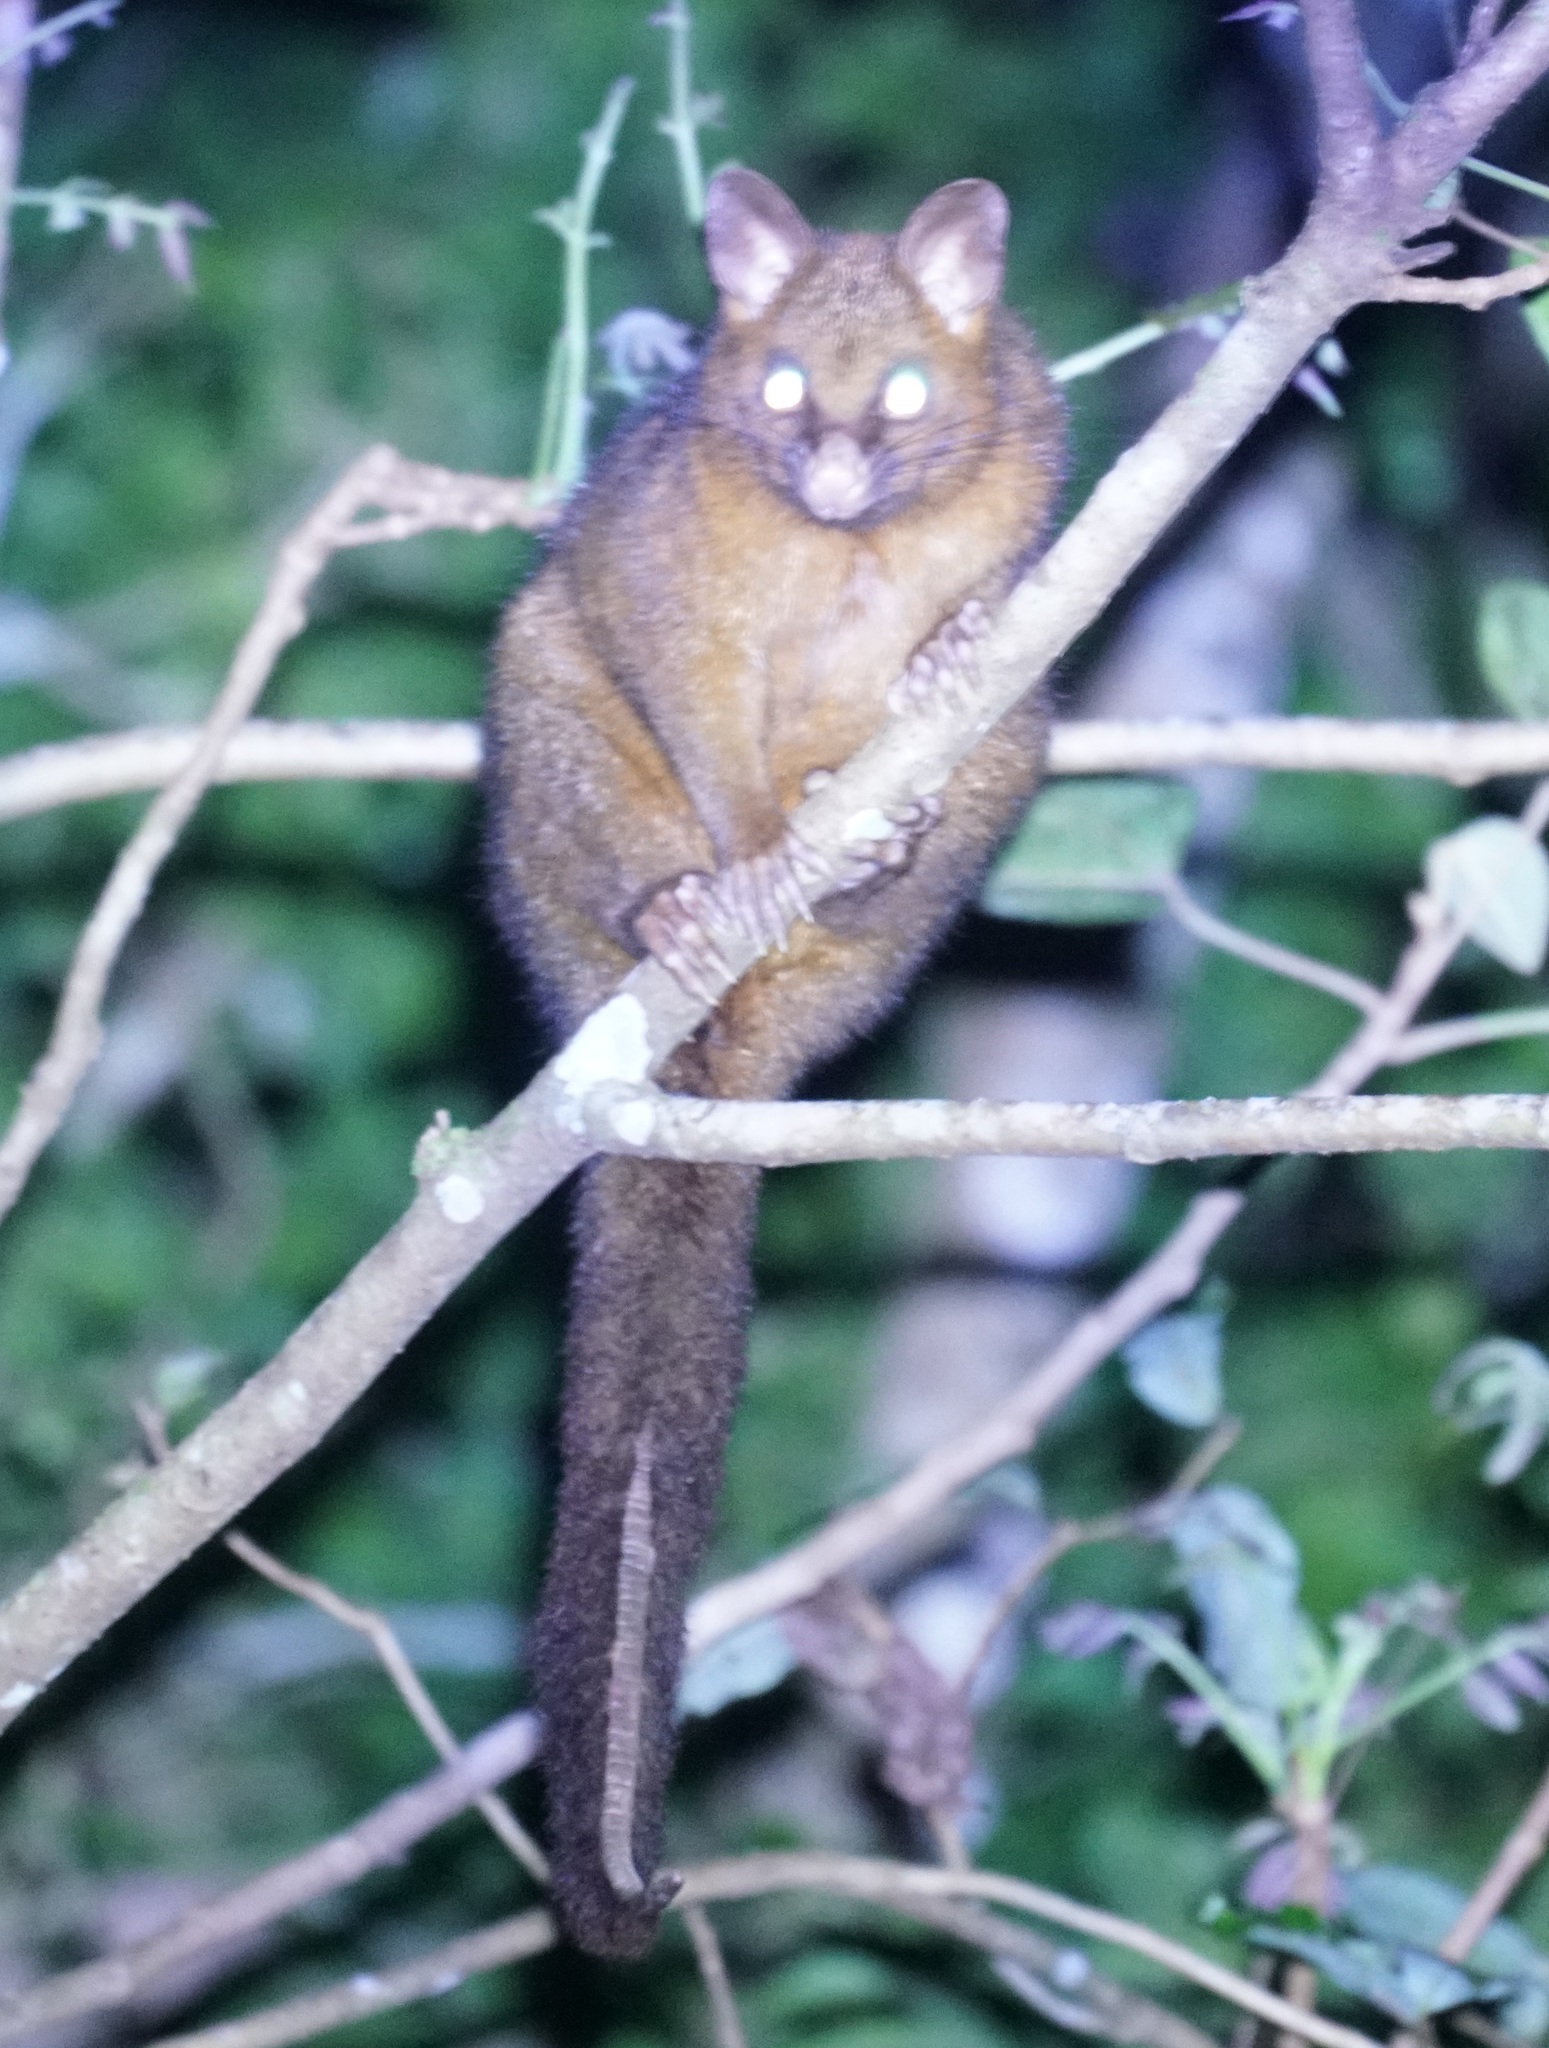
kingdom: Animalia
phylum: Chordata
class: Mammalia
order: Diprotodontia
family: Phalangeridae
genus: Trichosurus
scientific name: Trichosurus johnstonii
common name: Coppery brushtail
